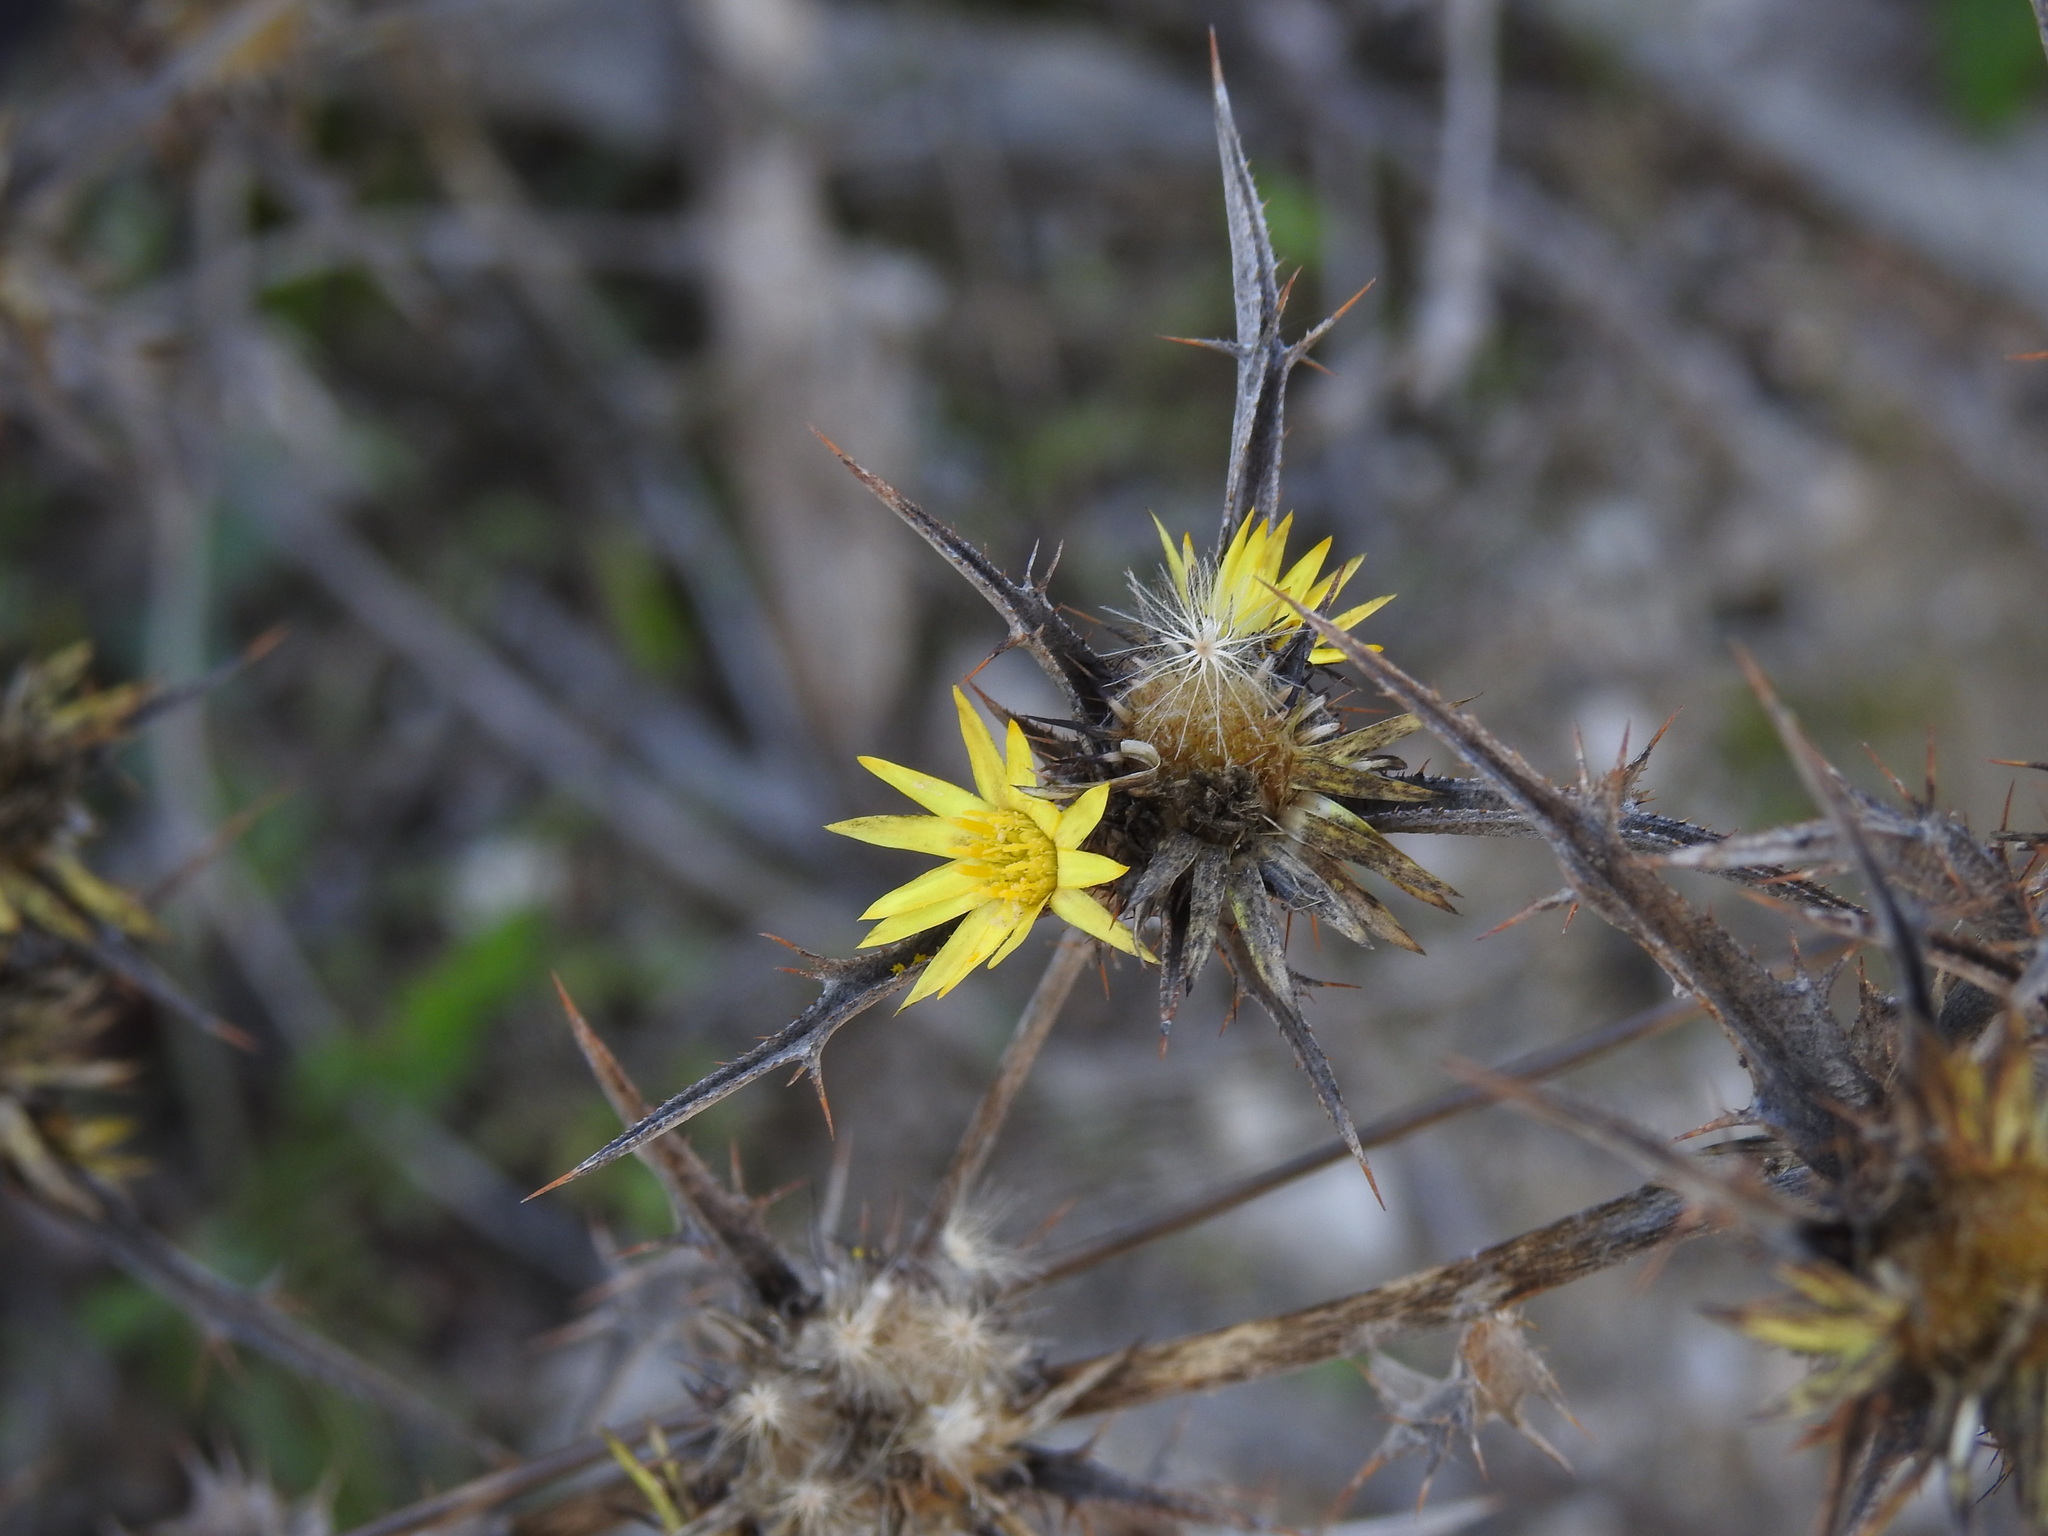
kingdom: Plantae
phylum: Tracheophyta
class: Magnoliopsida
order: Asterales
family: Asteraceae
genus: Carlina
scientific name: Carlina racemosa
